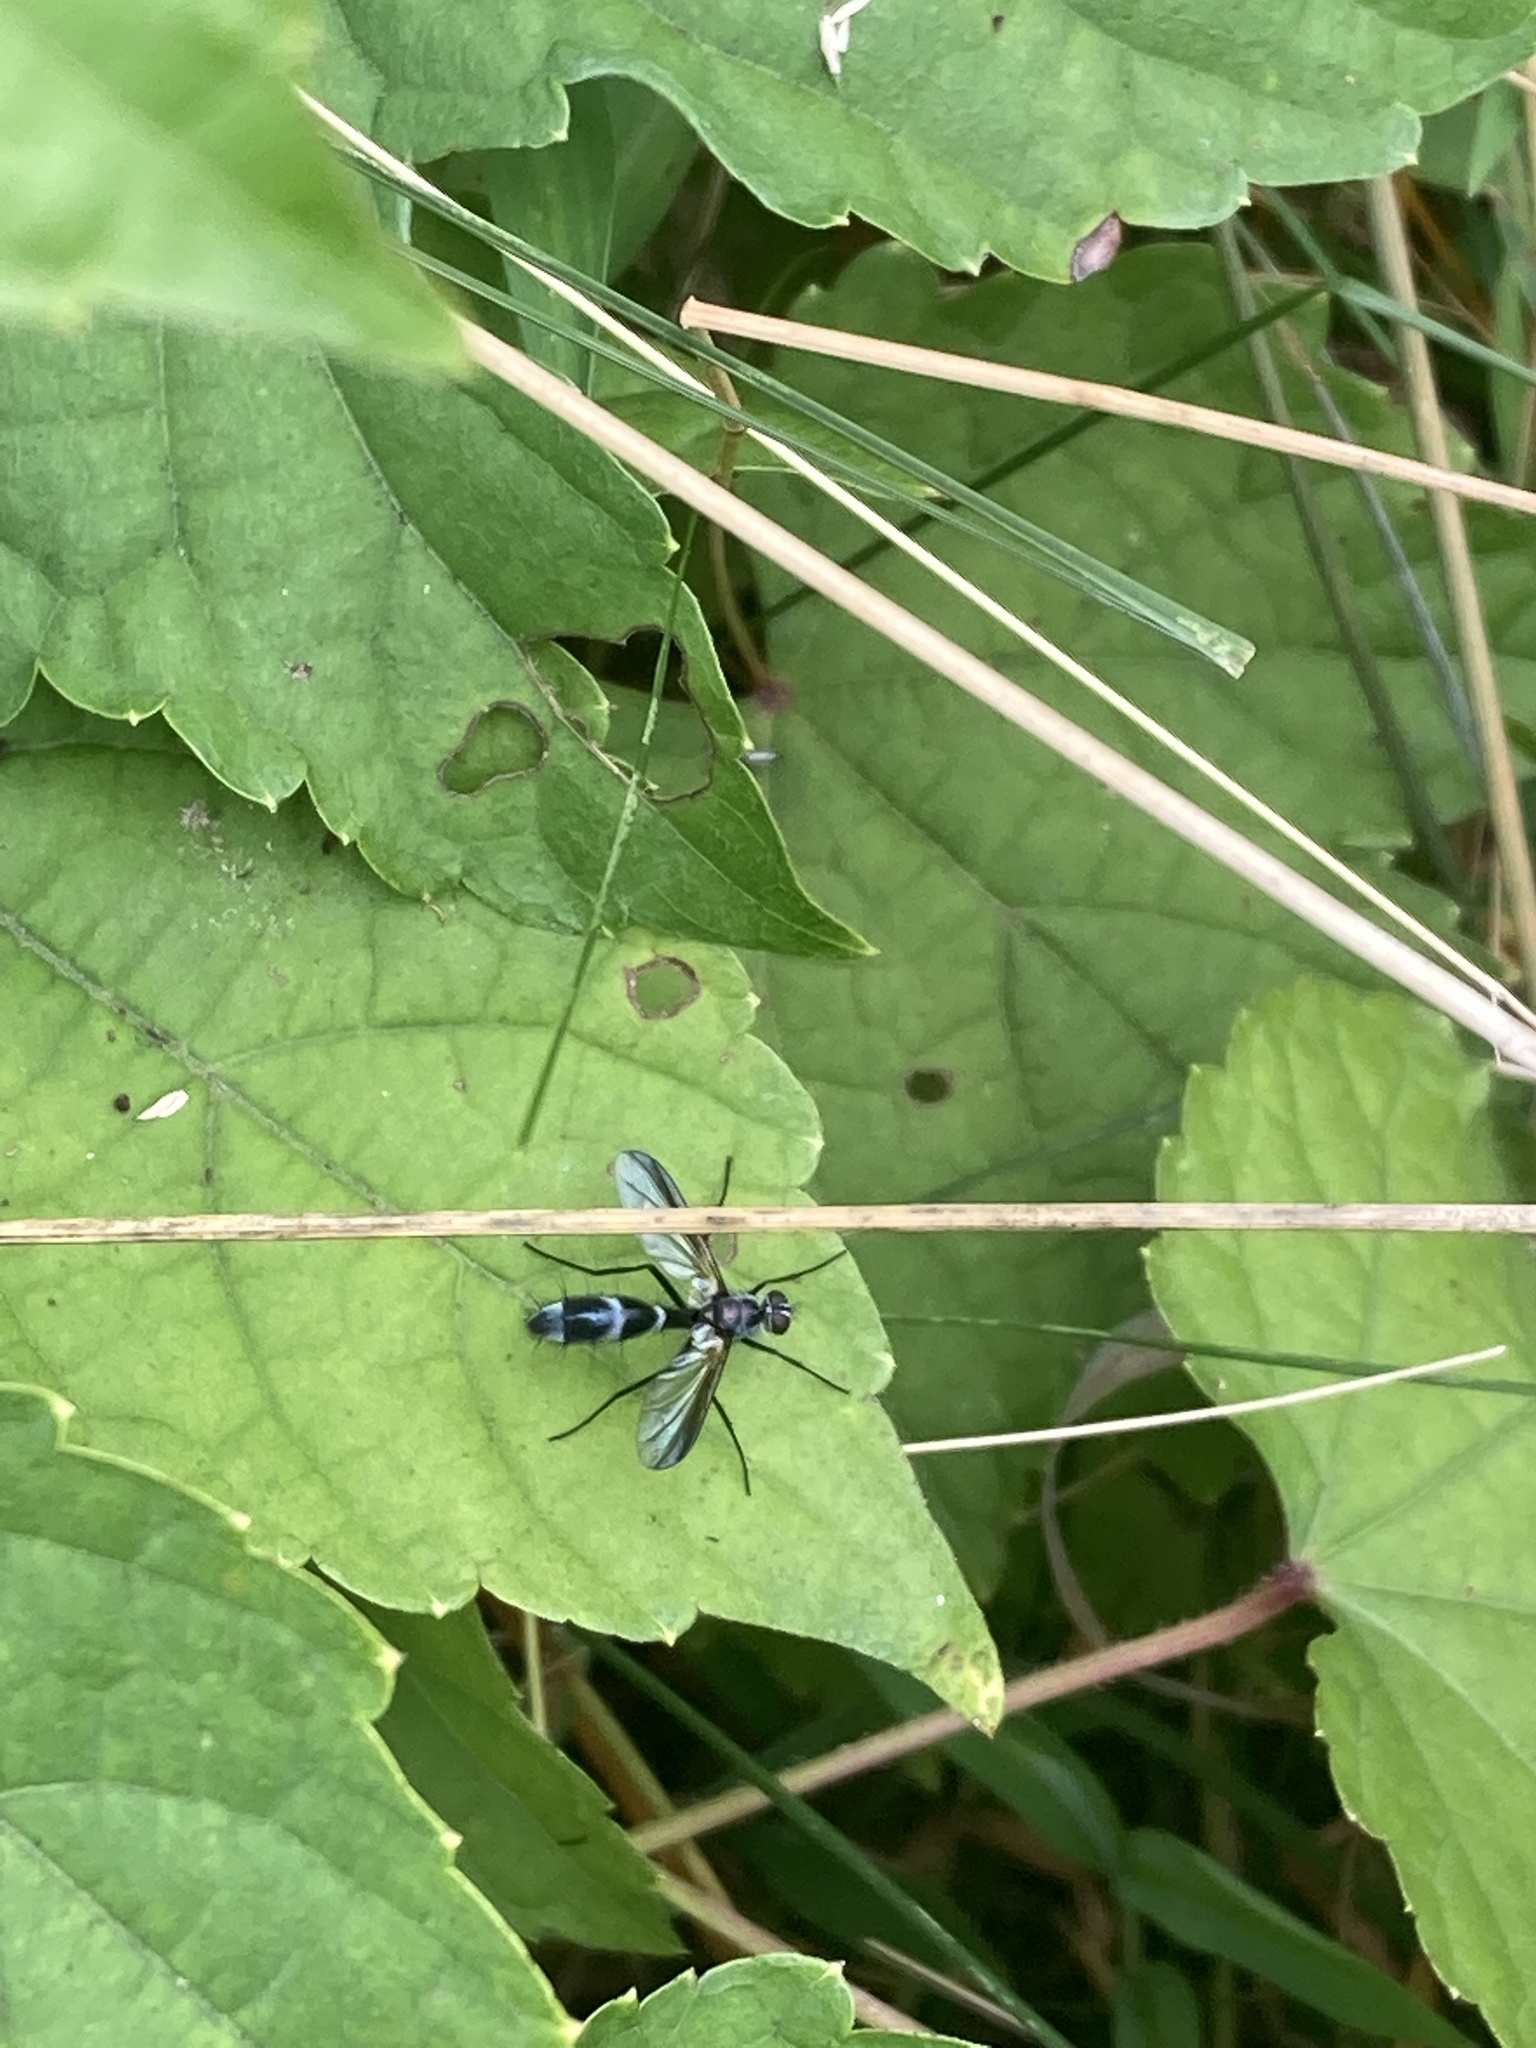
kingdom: Animalia
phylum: Arthropoda
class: Insecta
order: Diptera
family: Tachinidae
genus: Cordyligaster
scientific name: Cordyligaster septentrionalis
